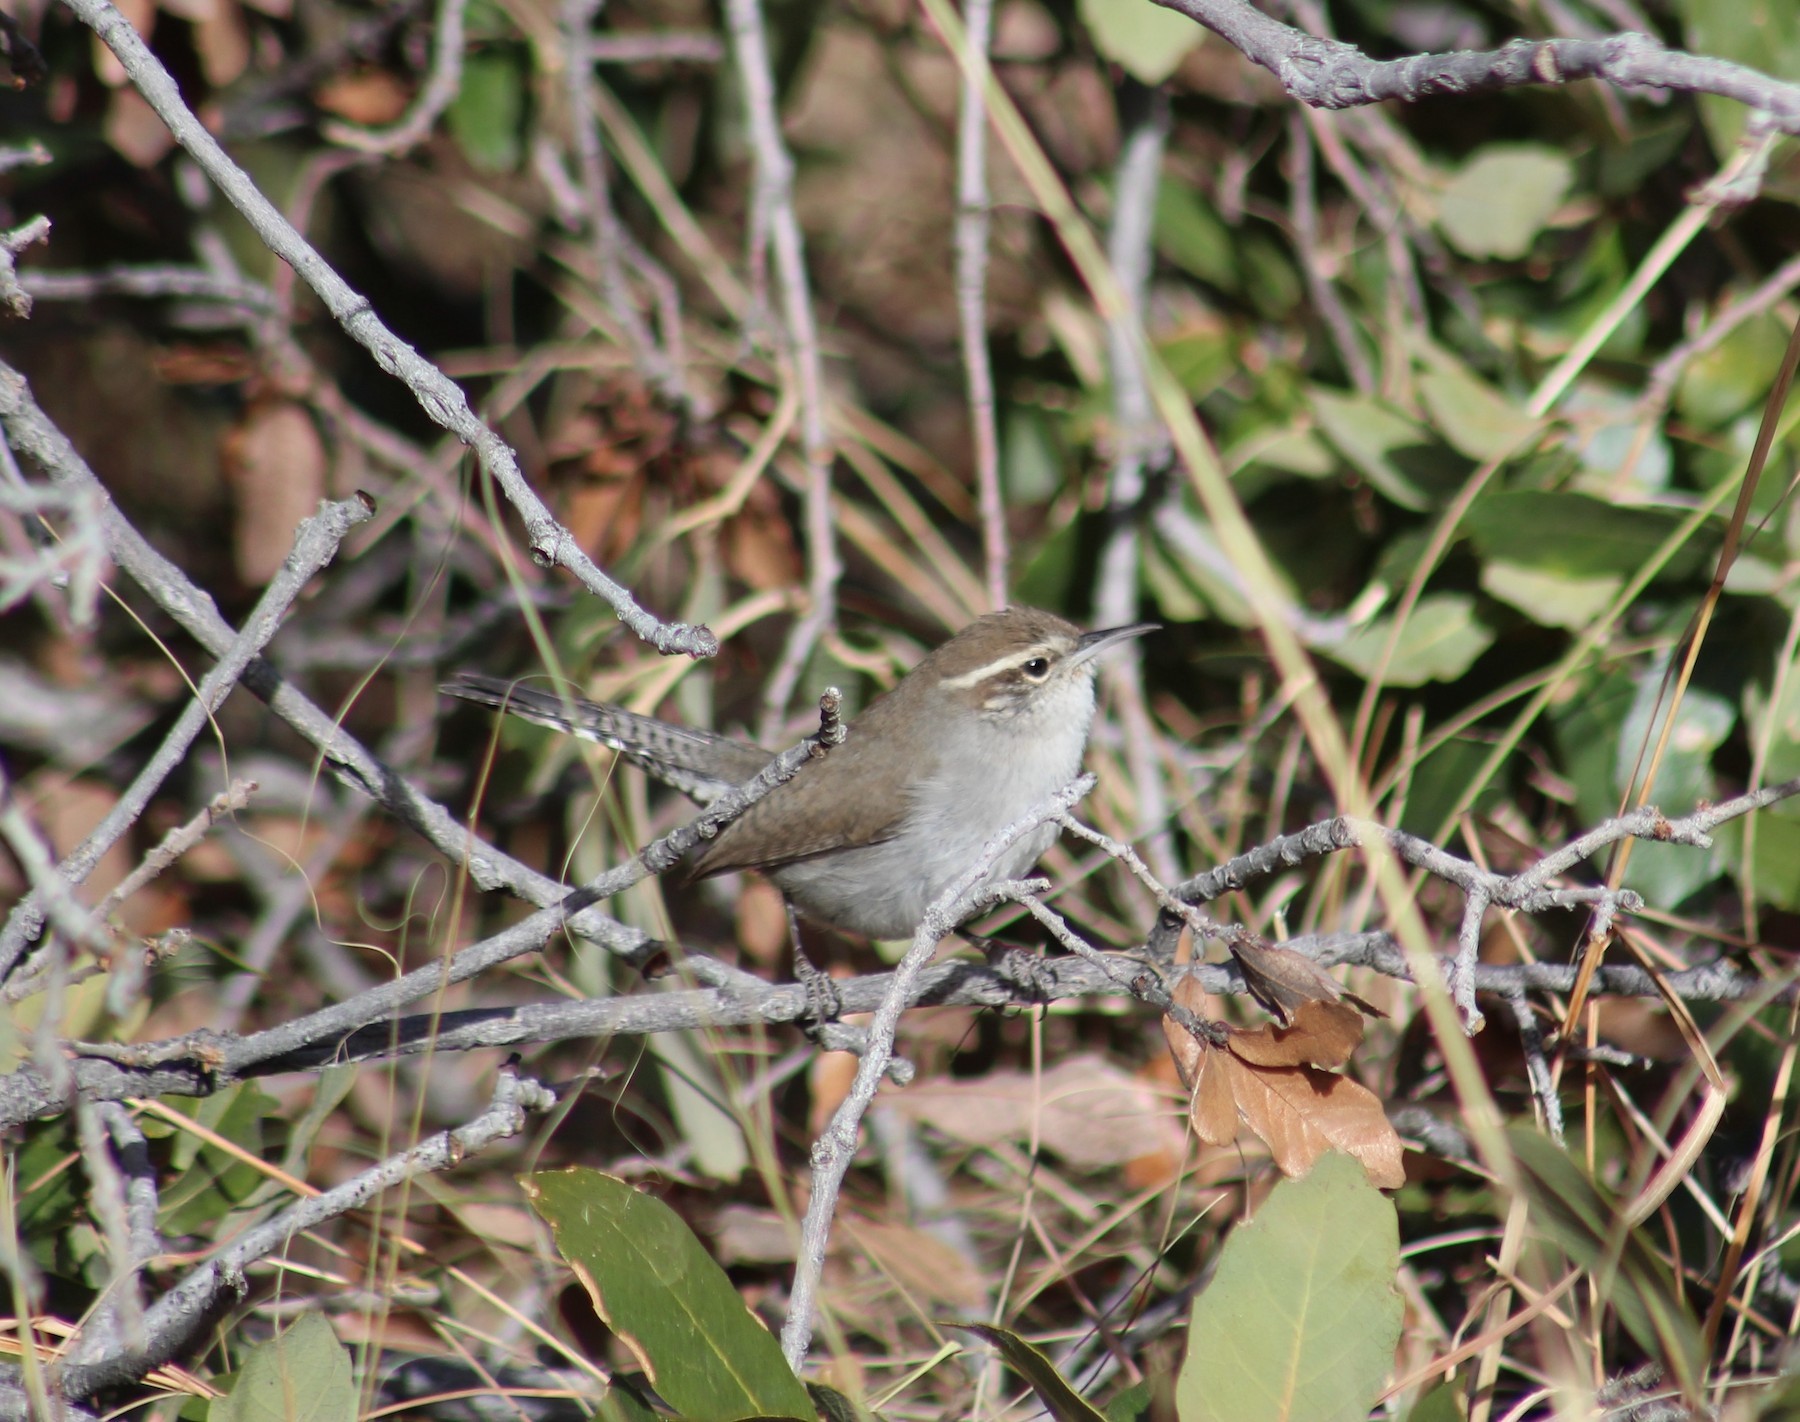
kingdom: Animalia
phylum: Chordata
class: Aves
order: Passeriformes
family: Troglodytidae
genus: Thryomanes
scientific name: Thryomanes bewickii
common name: Bewick's wren
